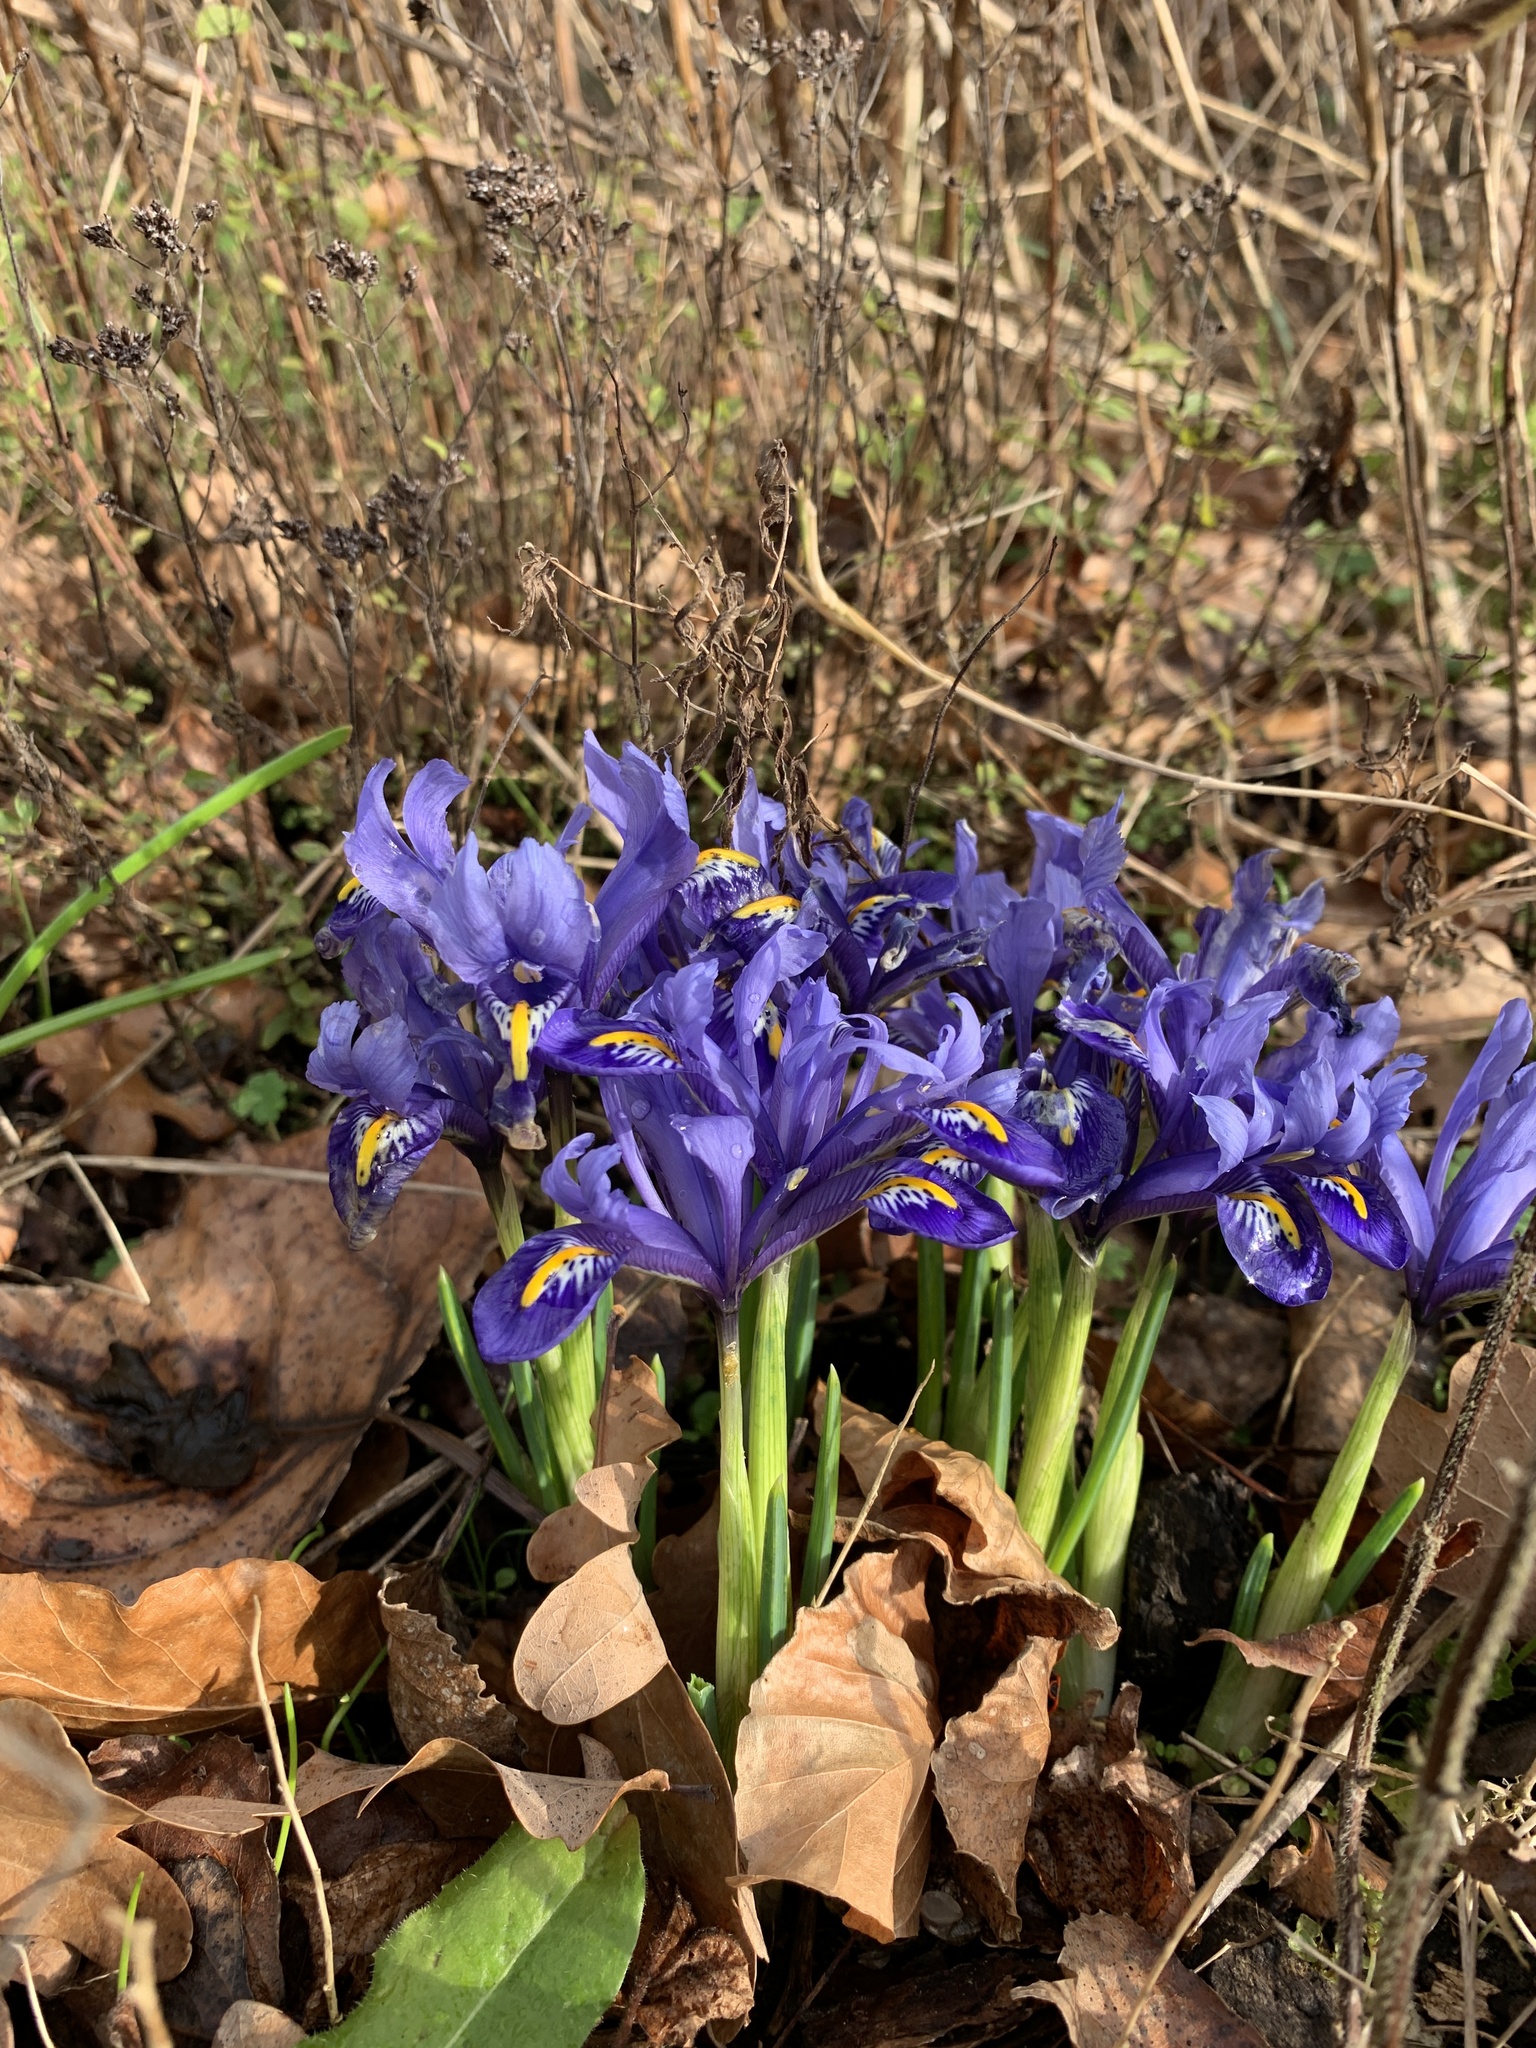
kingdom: Plantae
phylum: Tracheophyta
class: Liliopsida
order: Asparagales
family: Iridaceae
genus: Iris
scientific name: Iris reticulata
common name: Netted iris
